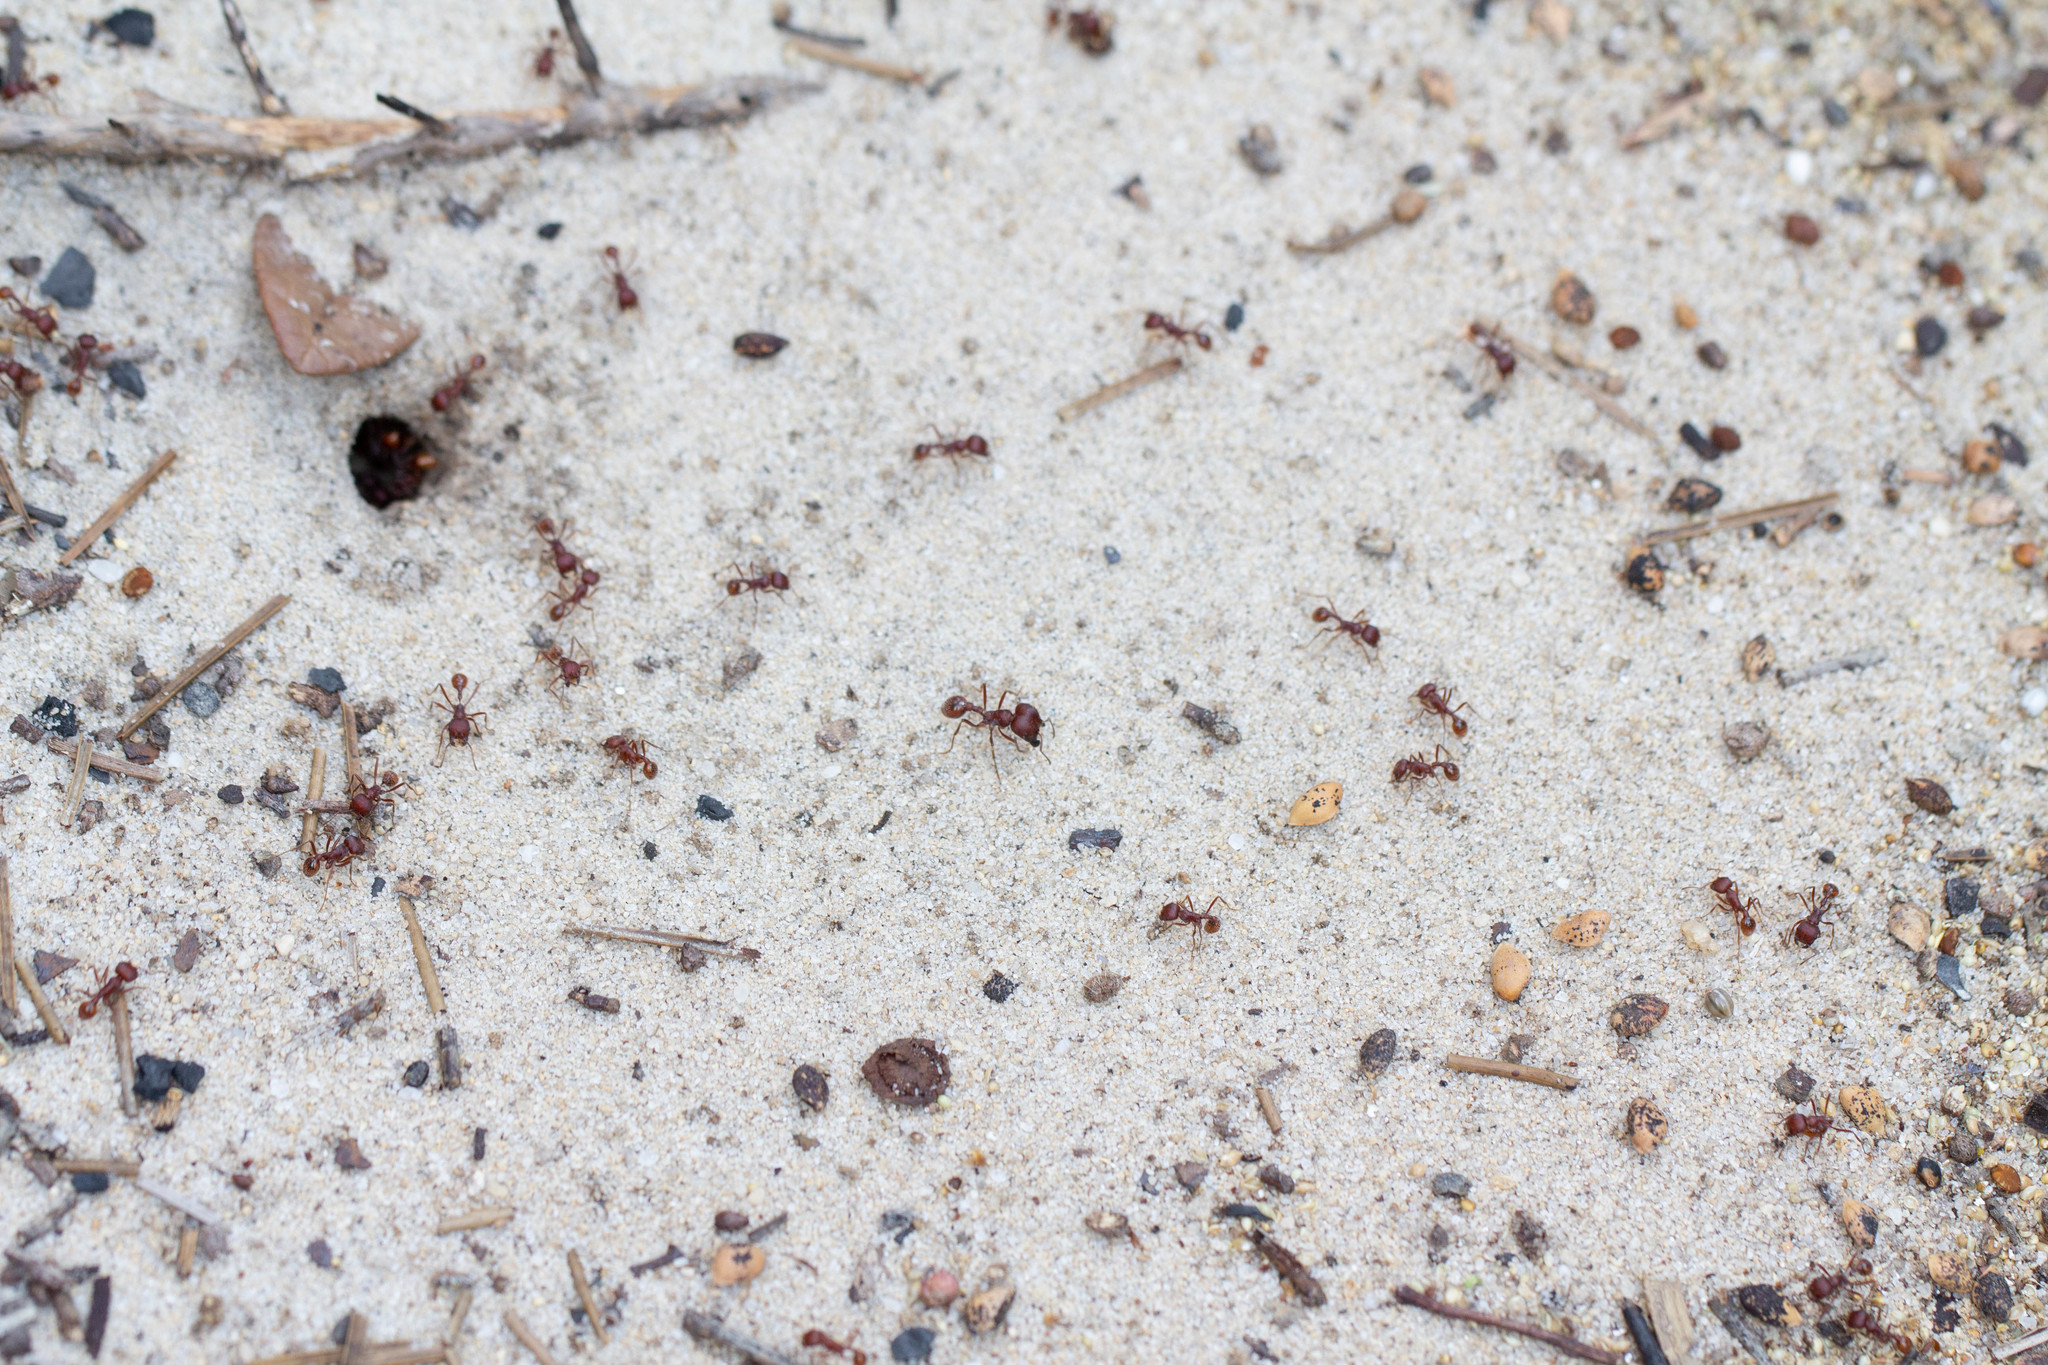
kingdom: Animalia
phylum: Arthropoda
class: Insecta
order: Hymenoptera
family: Formicidae
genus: Pogonomyrmex
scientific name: Pogonomyrmex badius
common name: Florida harvester ant
